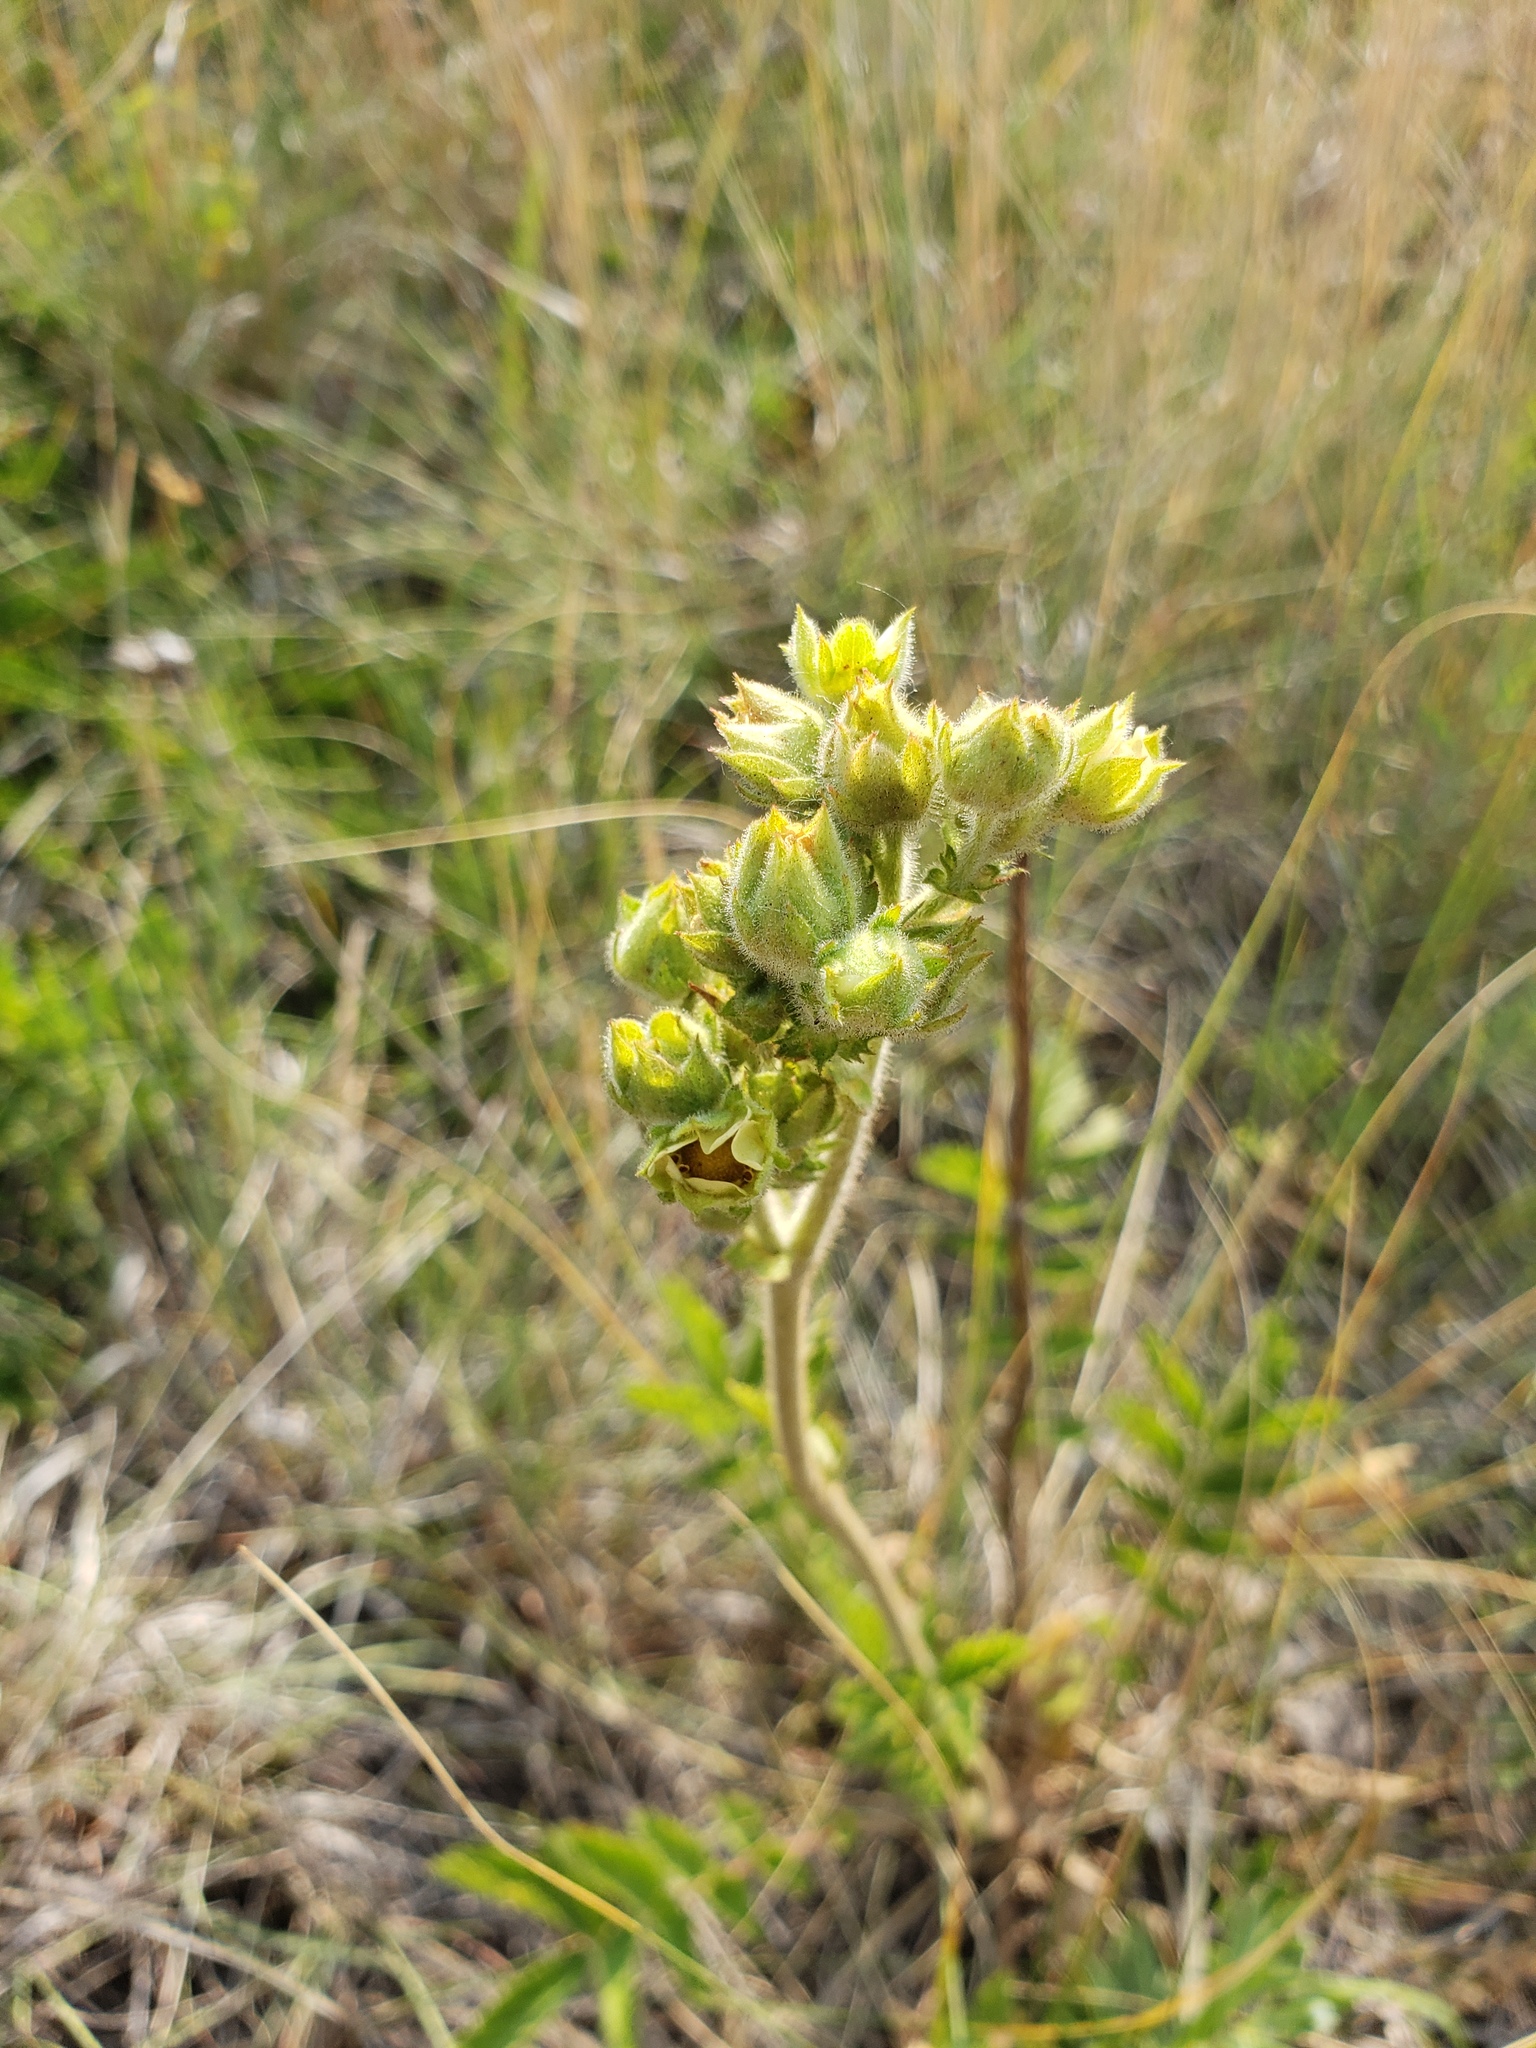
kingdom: Plantae
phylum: Tracheophyta
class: Magnoliopsida
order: Rosales
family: Rosaceae
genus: Drymocallis
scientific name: Drymocallis arguta
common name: Tall cinquefoil
